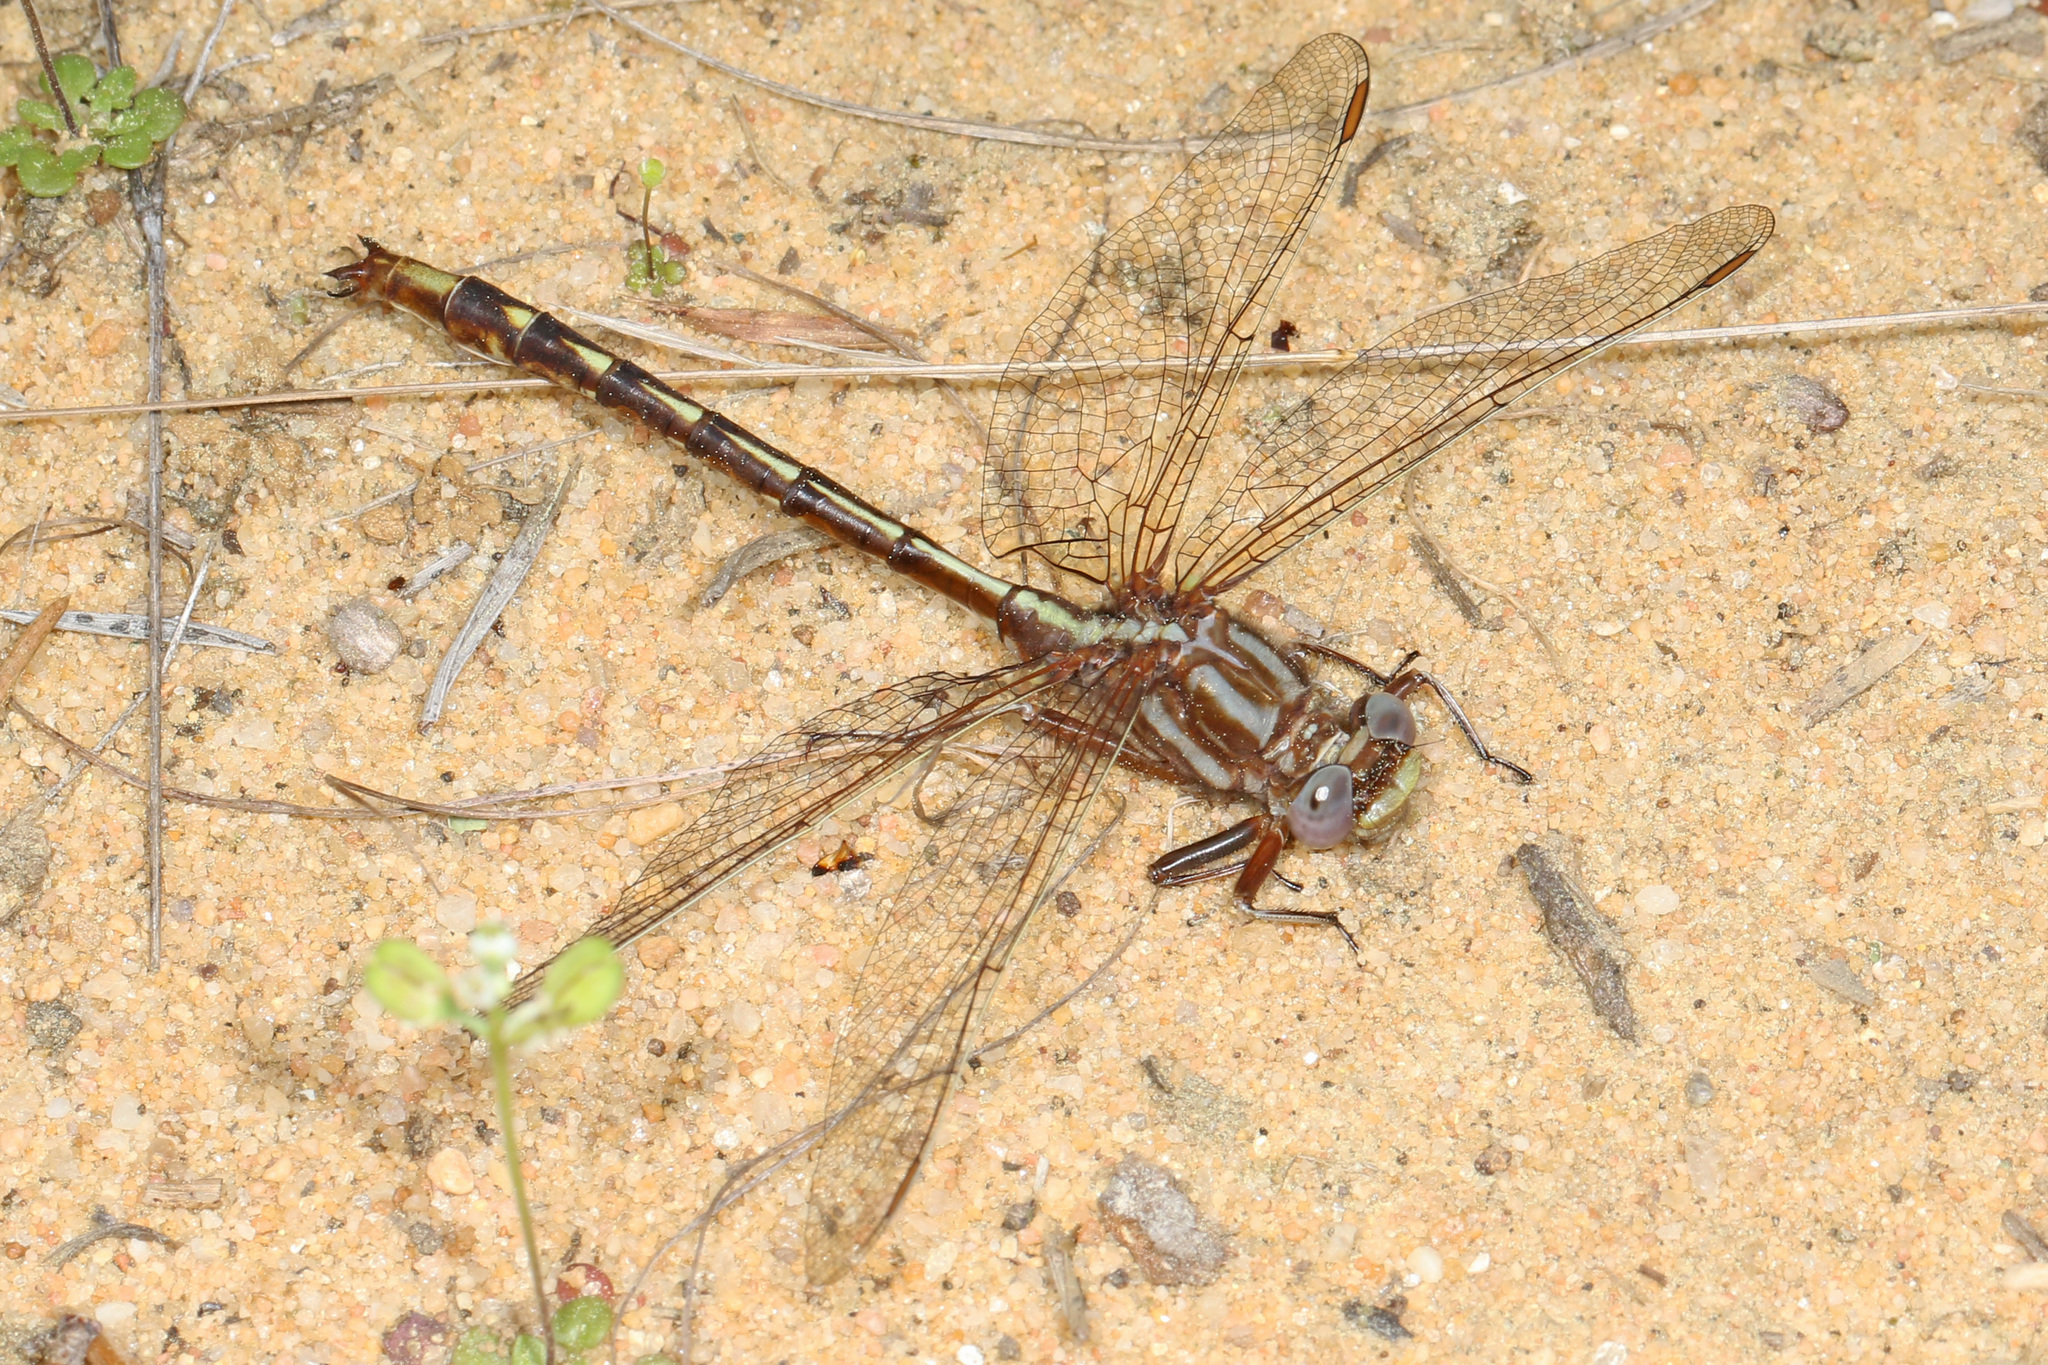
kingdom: Animalia
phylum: Arthropoda
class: Insecta
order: Odonata
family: Gomphidae
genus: Phanogomphus
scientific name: Phanogomphus exilis
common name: Lancet clubtail
